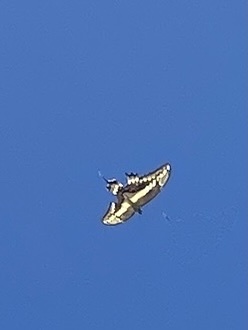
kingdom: Animalia
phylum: Arthropoda
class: Insecta
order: Lepidoptera
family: Papilionidae
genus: Papilio
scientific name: Papilio thoas
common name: King swallowtail
